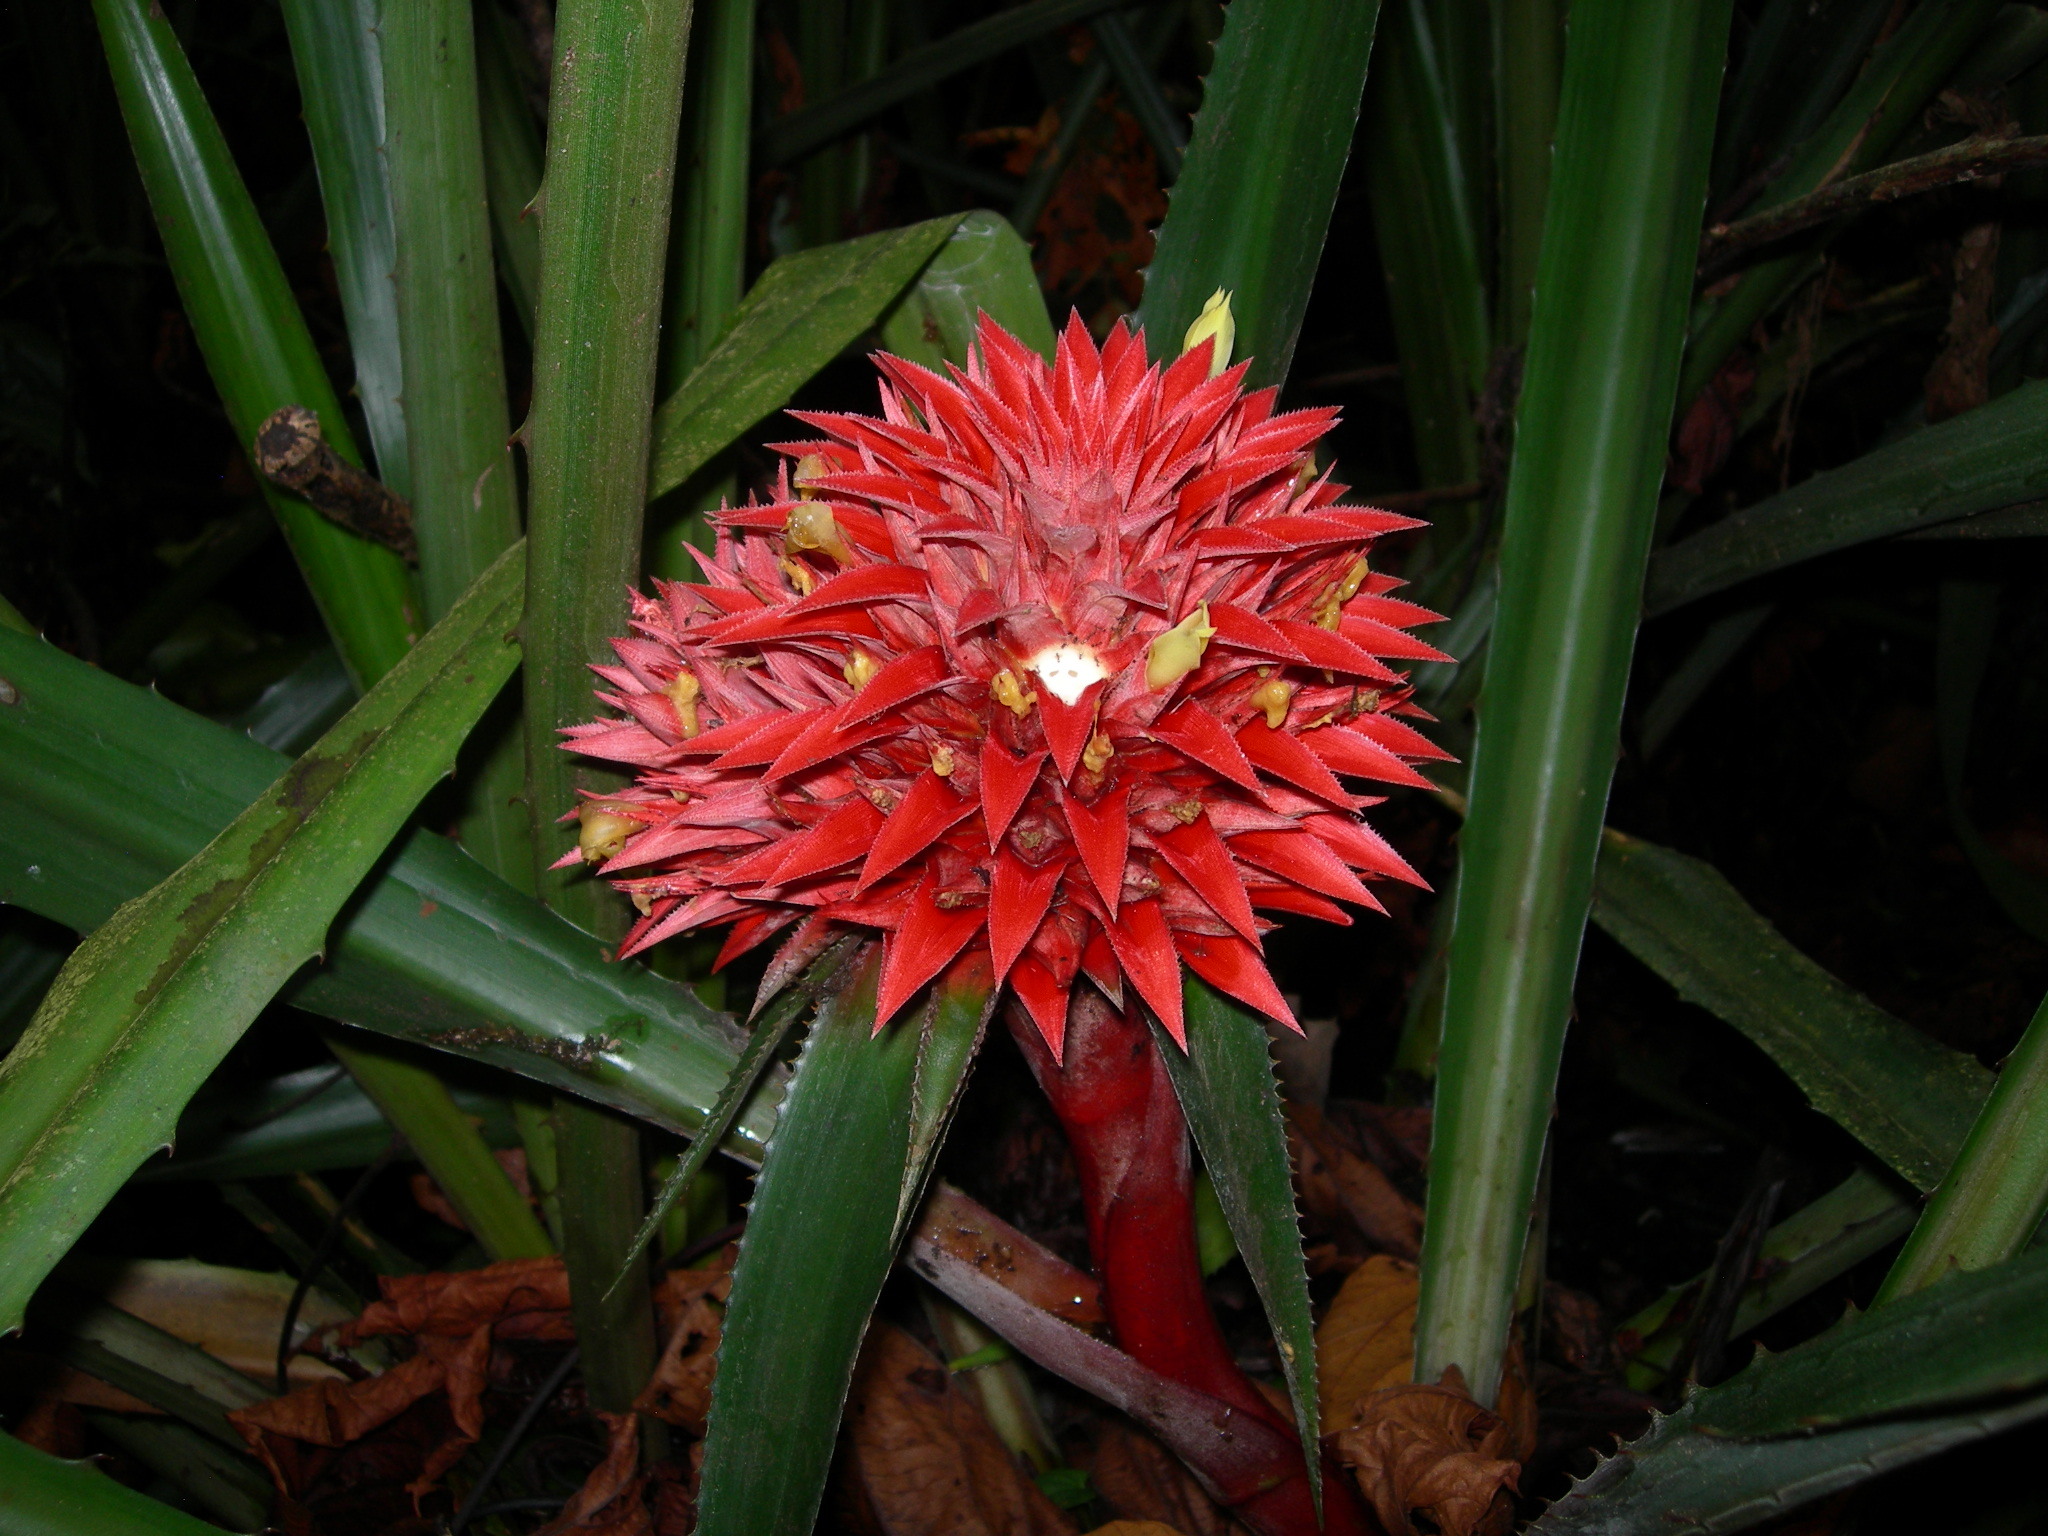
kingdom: Plantae
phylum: Tracheophyta
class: Liliopsida
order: Poales
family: Bromeliaceae
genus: Aechmea
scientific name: Aechmea magdalenae
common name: Arghan
